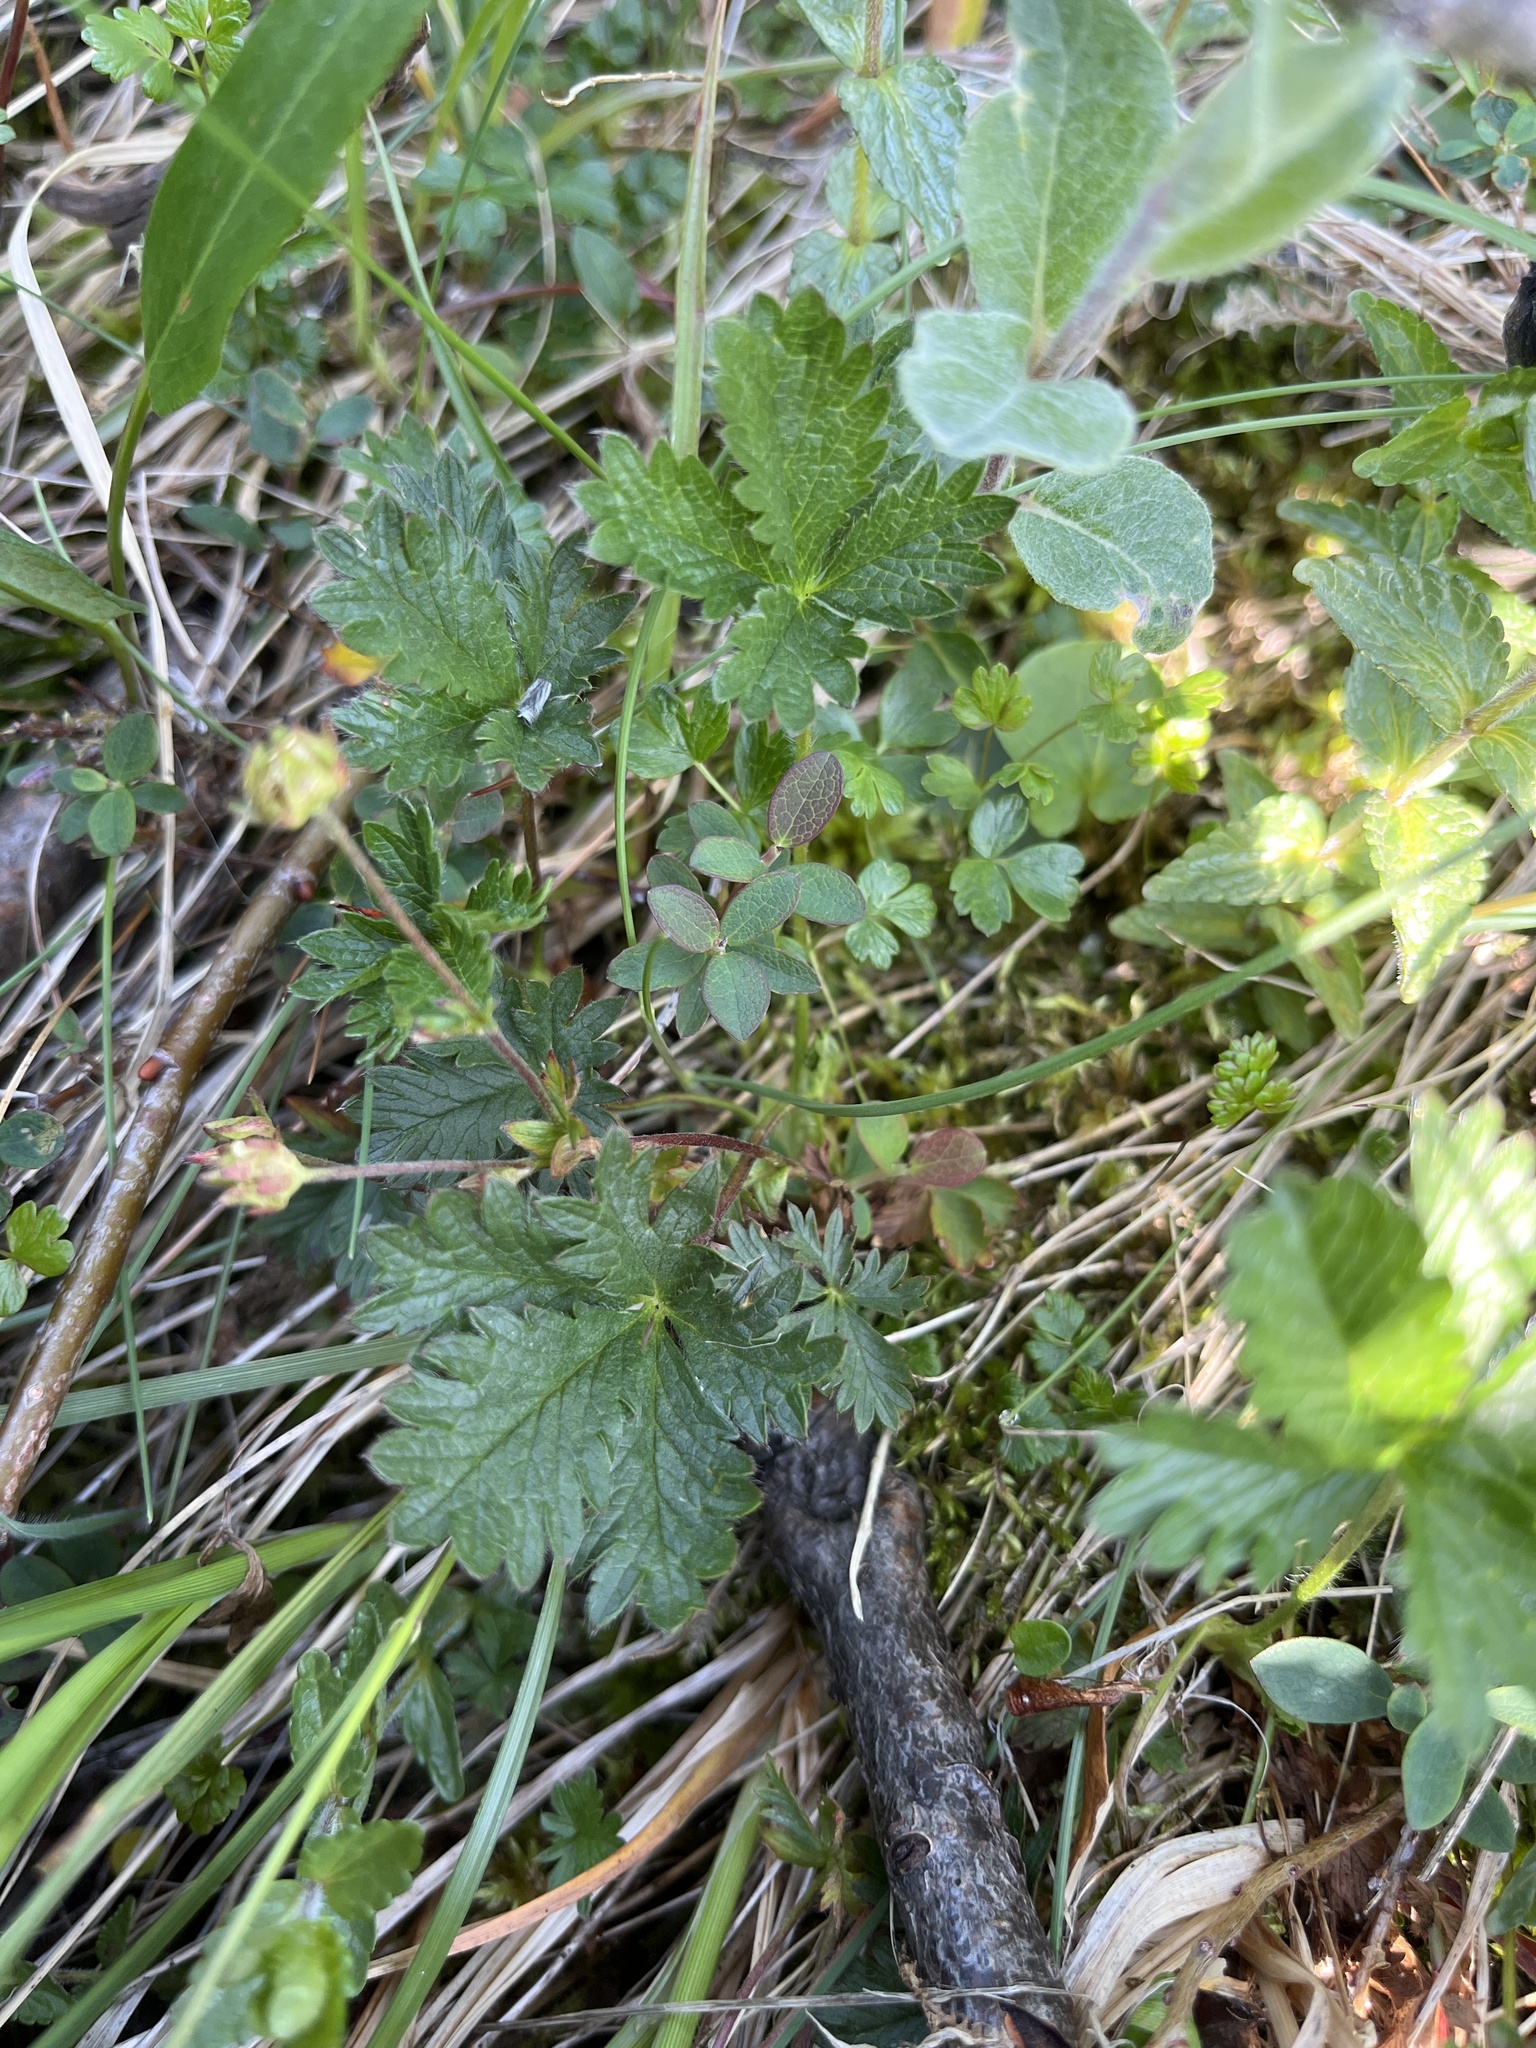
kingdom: Plantae
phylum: Tracheophyta
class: Magnoliopsida
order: Rosales
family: Rosaceae
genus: Potentilla
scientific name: Potentilla crantzii
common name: Alpine cinquefoil
